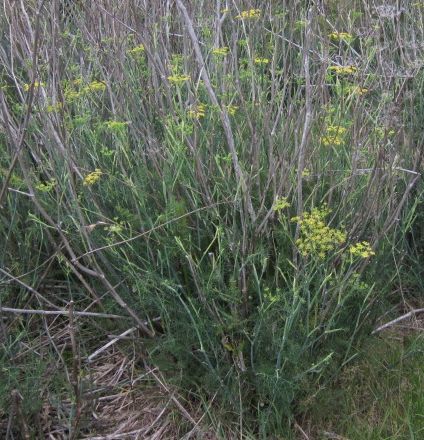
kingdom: Plantae
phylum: Tracheophyta
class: Magnoliopsida
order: Apiales
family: Apiaceae
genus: Foeniculum
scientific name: Foeniculum vulgare
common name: Fennel
